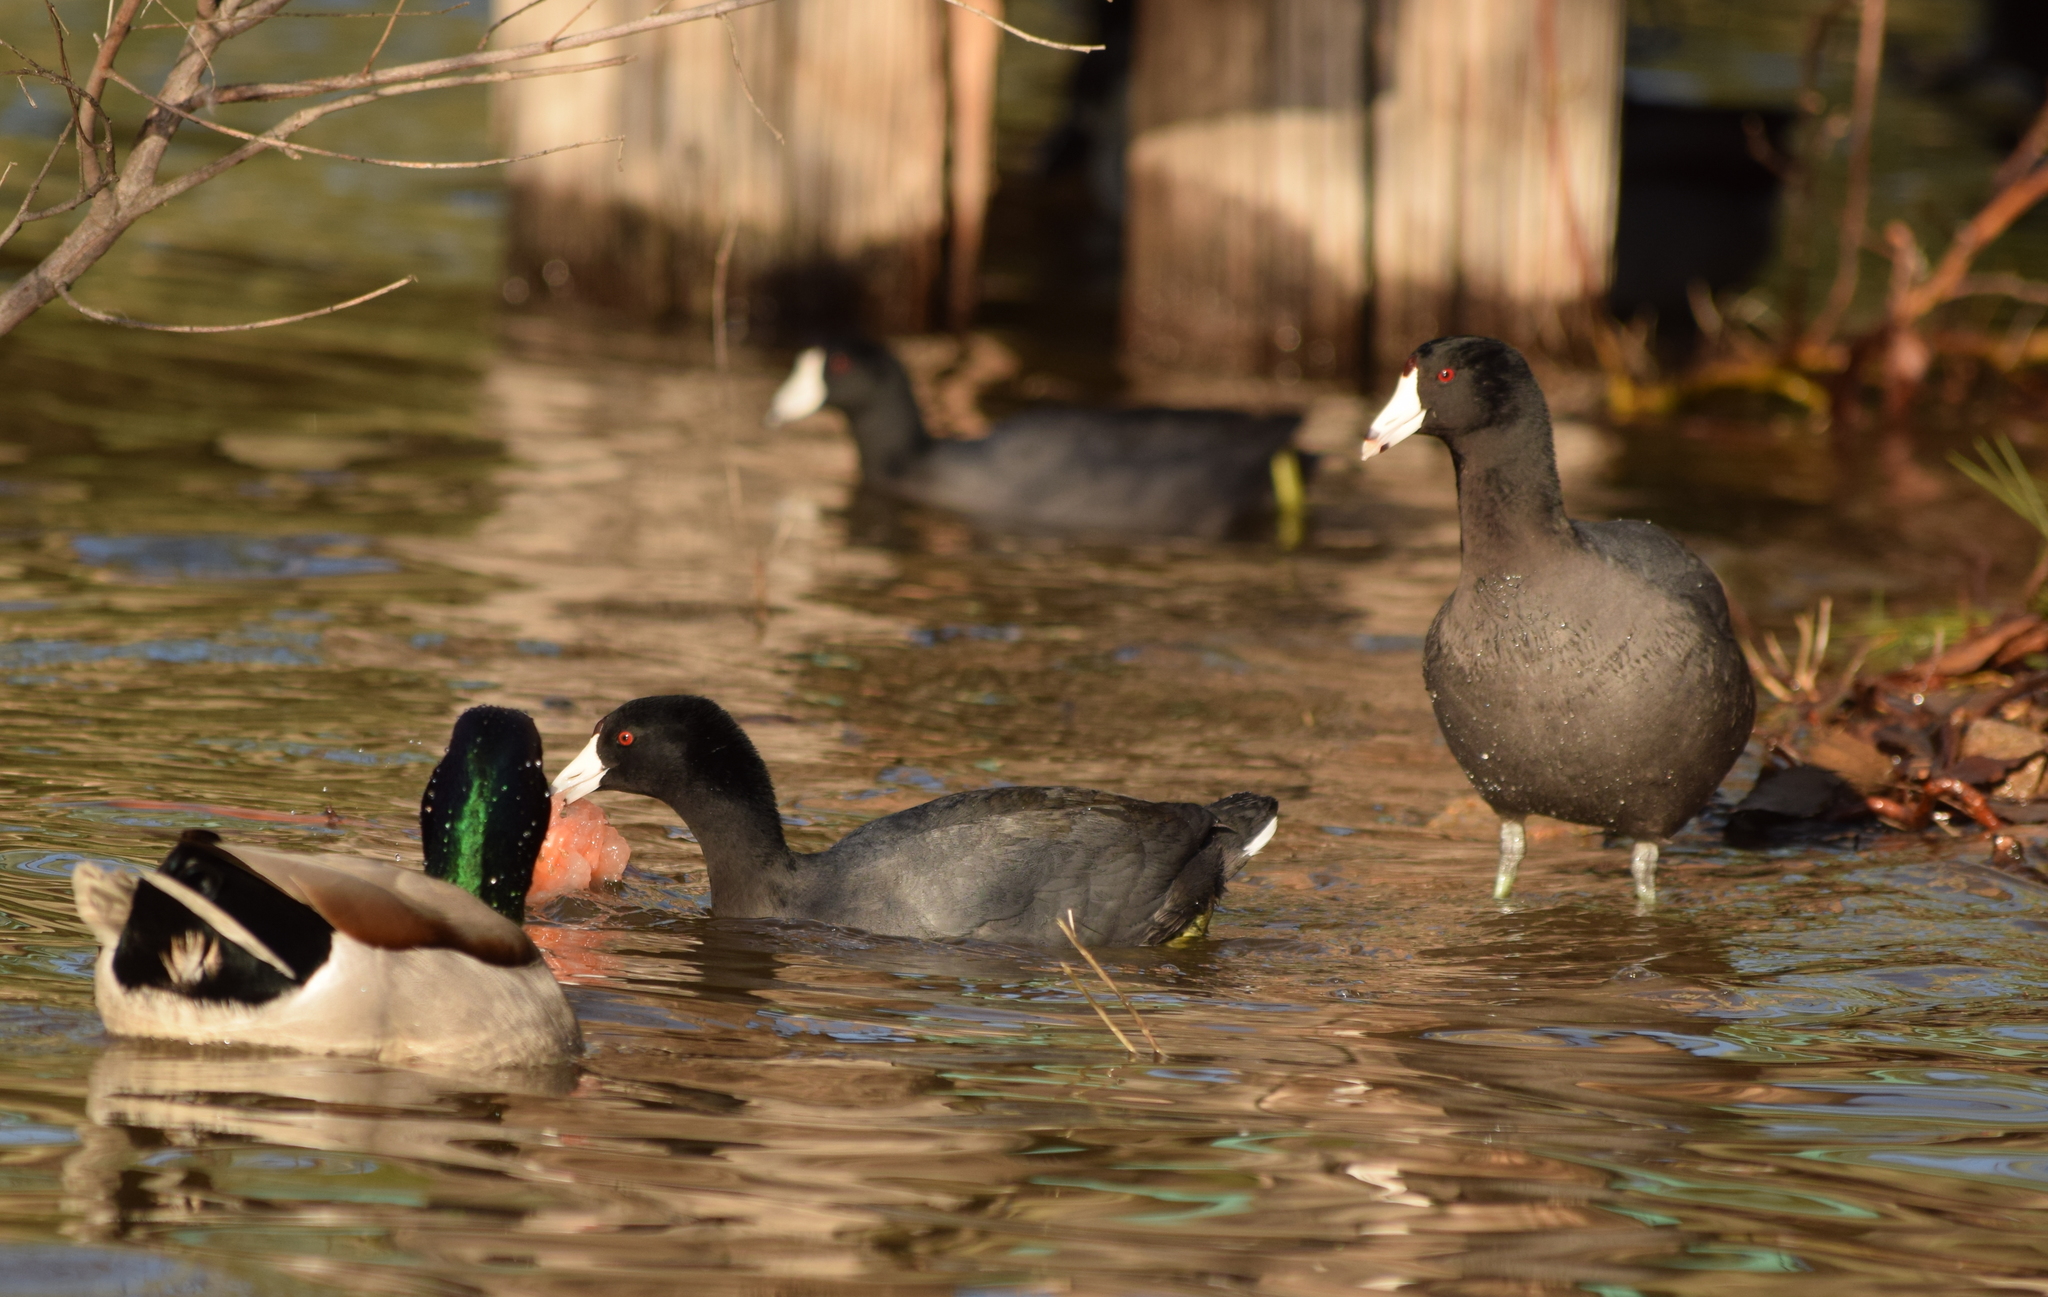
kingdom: Animalia
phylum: Chordata
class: Aves
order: Gruiformes
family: Rallidae
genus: Fulica
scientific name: Fulica americana
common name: American coot
